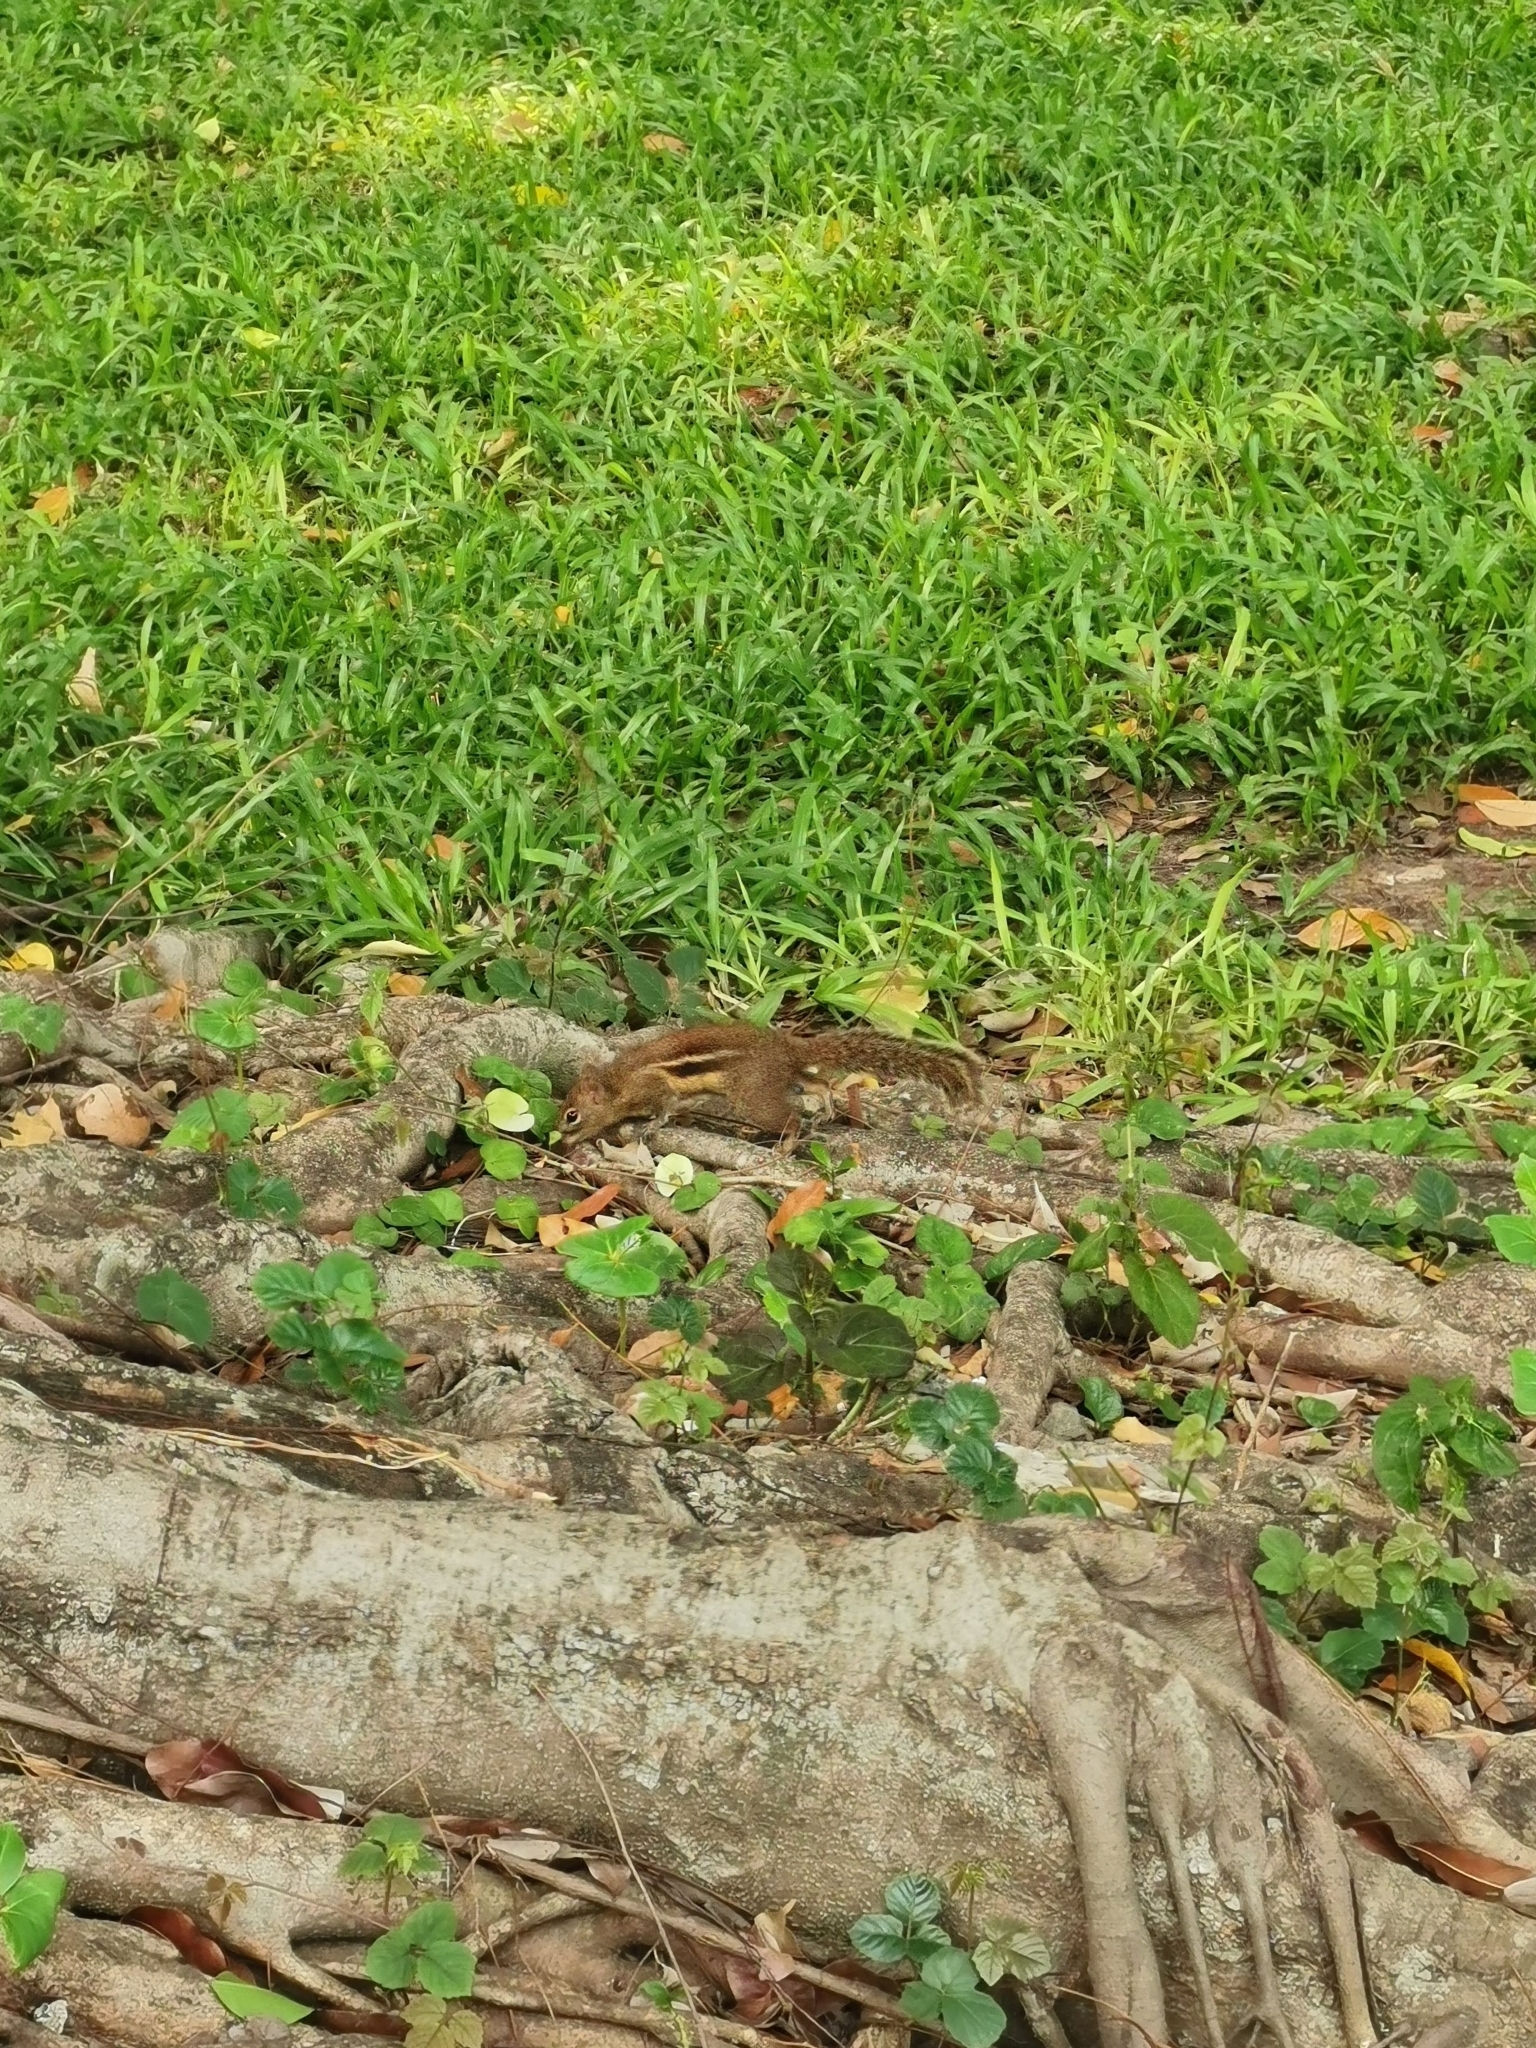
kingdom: Animalia
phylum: Chordata
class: Mammalia
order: Rodentia
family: Sciuridae
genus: Menetes
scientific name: Menetes berdmorei
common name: Indochinese ground squirrel
